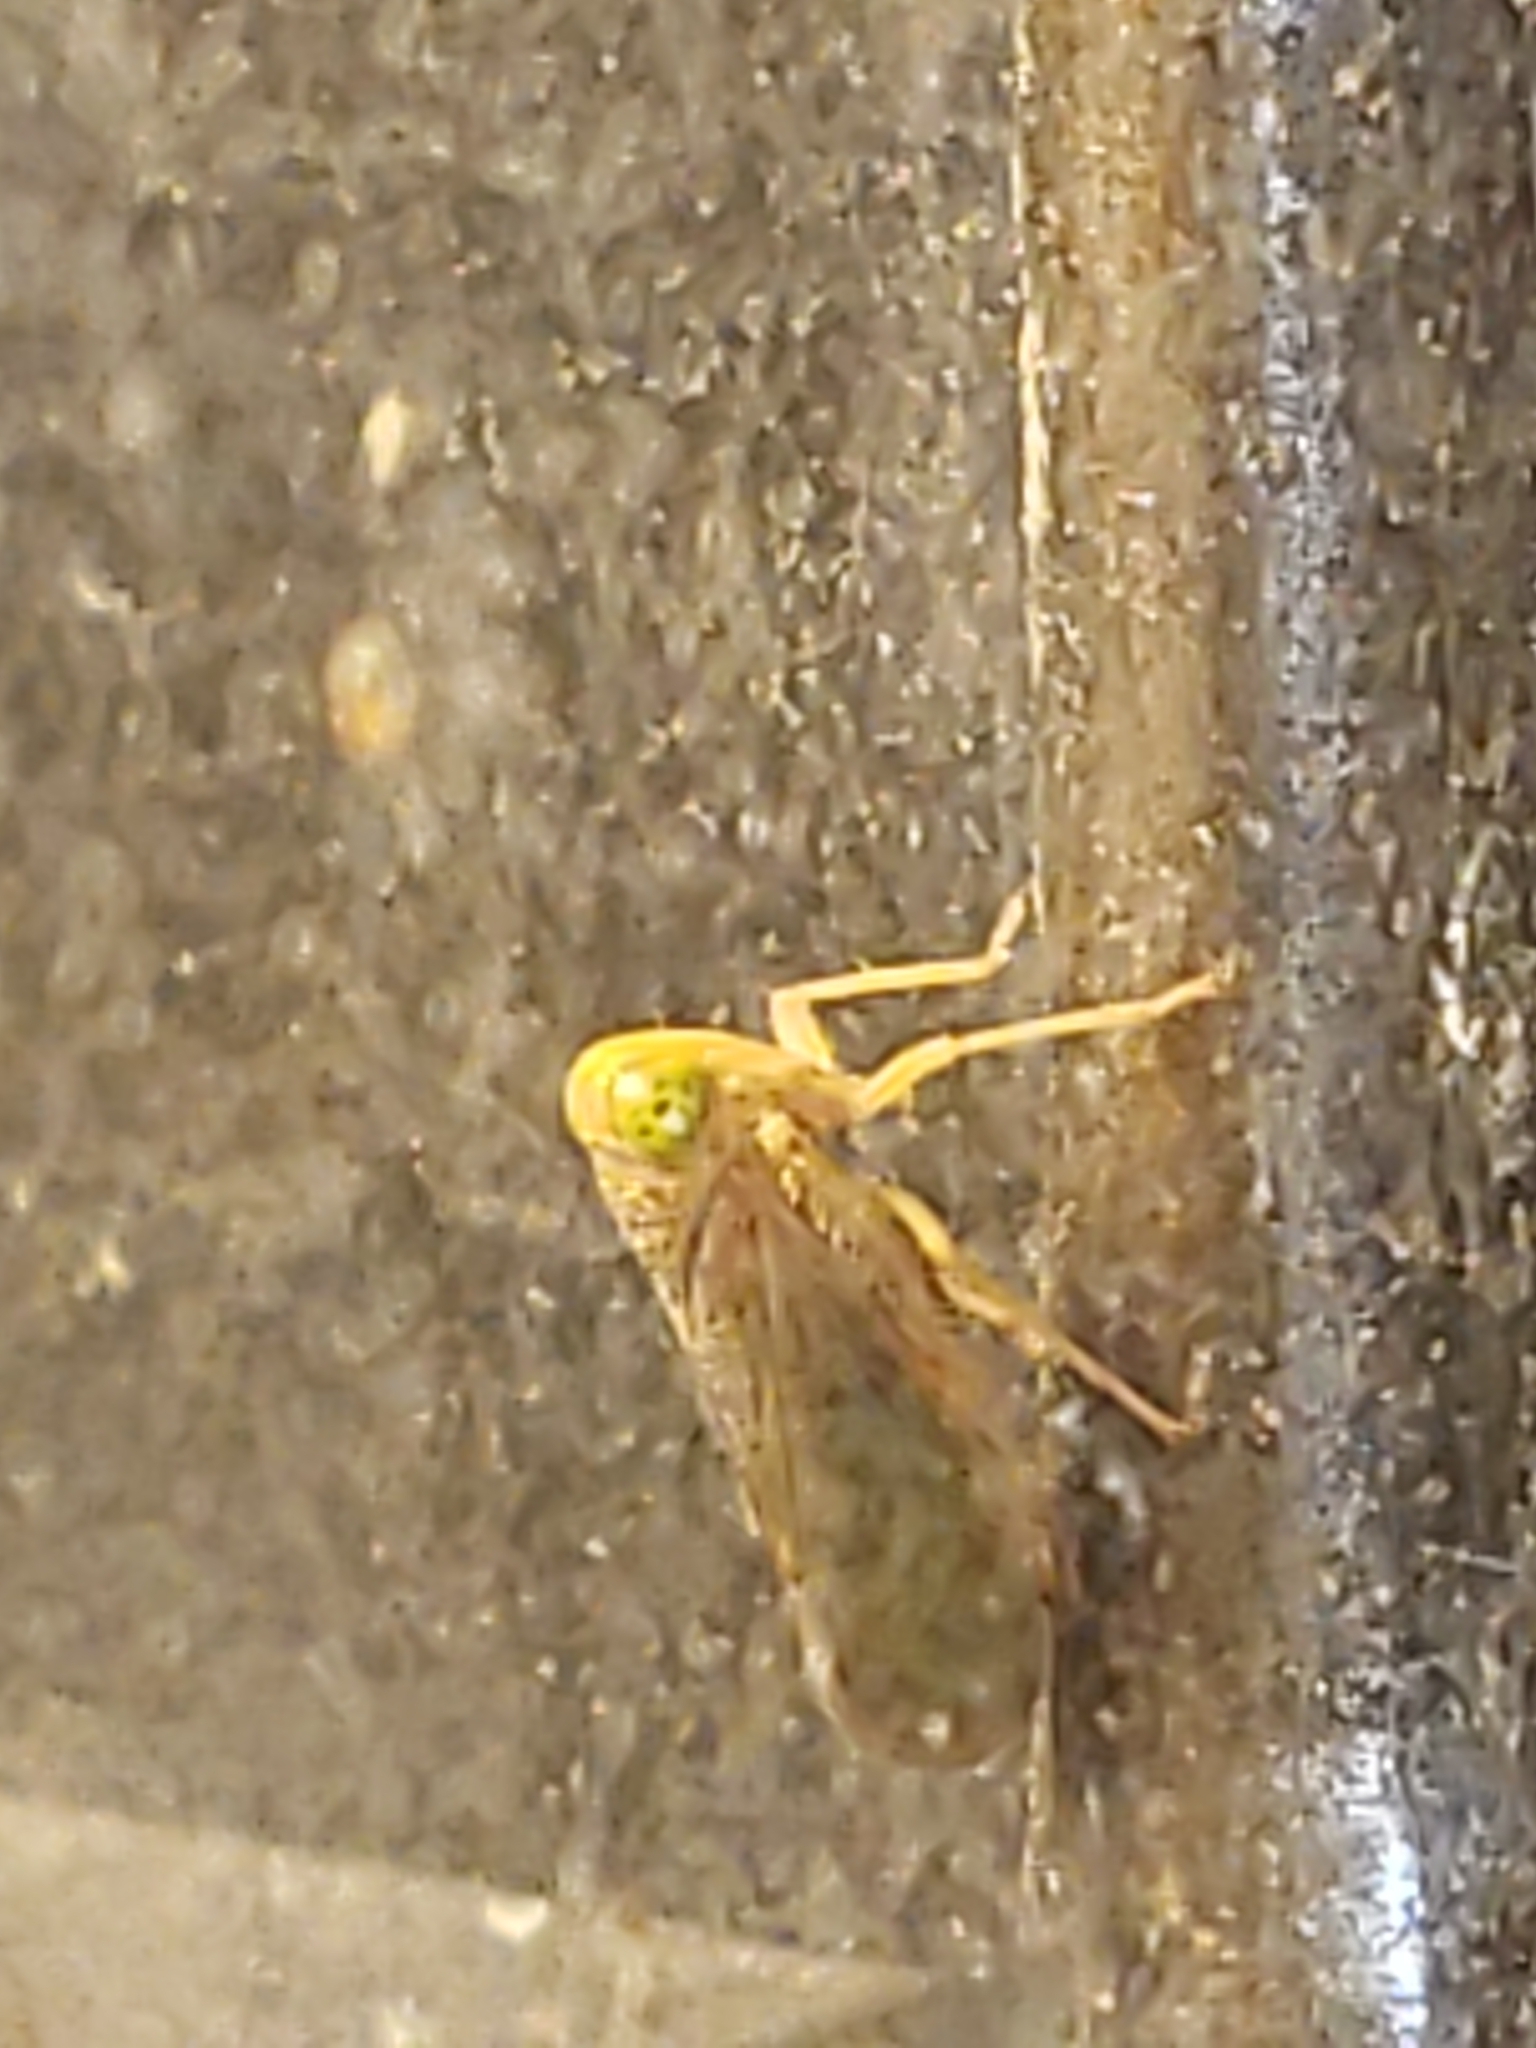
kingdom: Animalia
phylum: Arthropoda
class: Insecta
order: Hemiptera
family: Cicadellidae
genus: Jikradia
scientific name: Jikradia olitoria
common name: Coppery leafhopper
